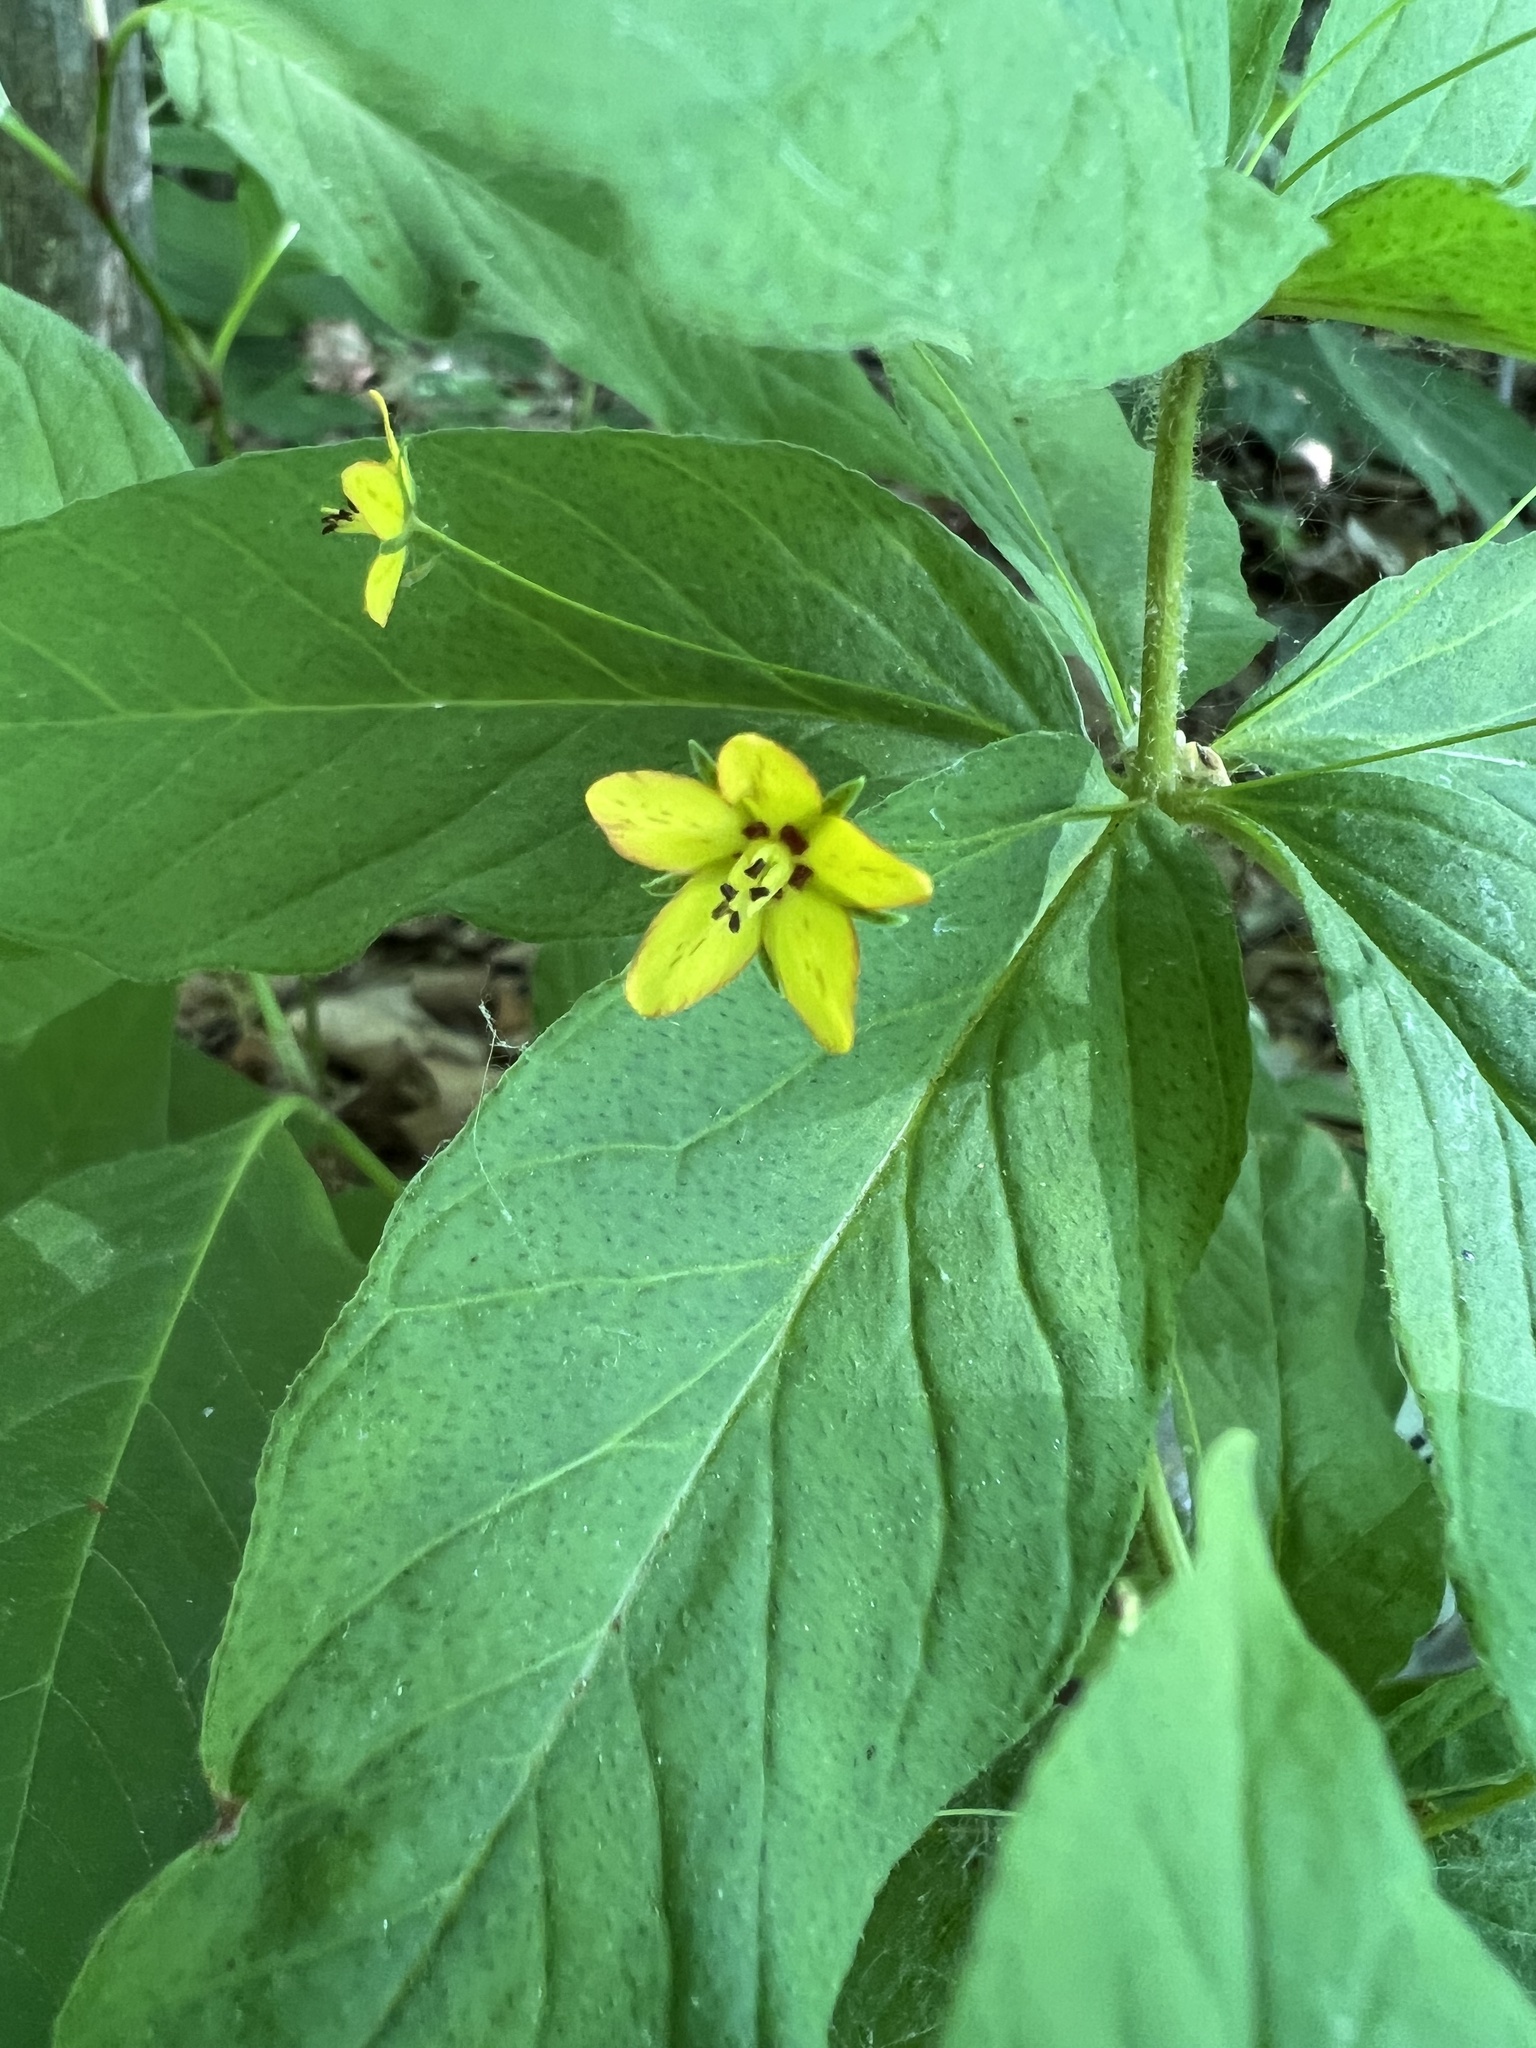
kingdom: Plantae
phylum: Tracheophyta
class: Magnoliopsida
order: Ericales
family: Primulaceae
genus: Lysimachia
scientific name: Lysimachia quadrifolia
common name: Whorled loosestrife
